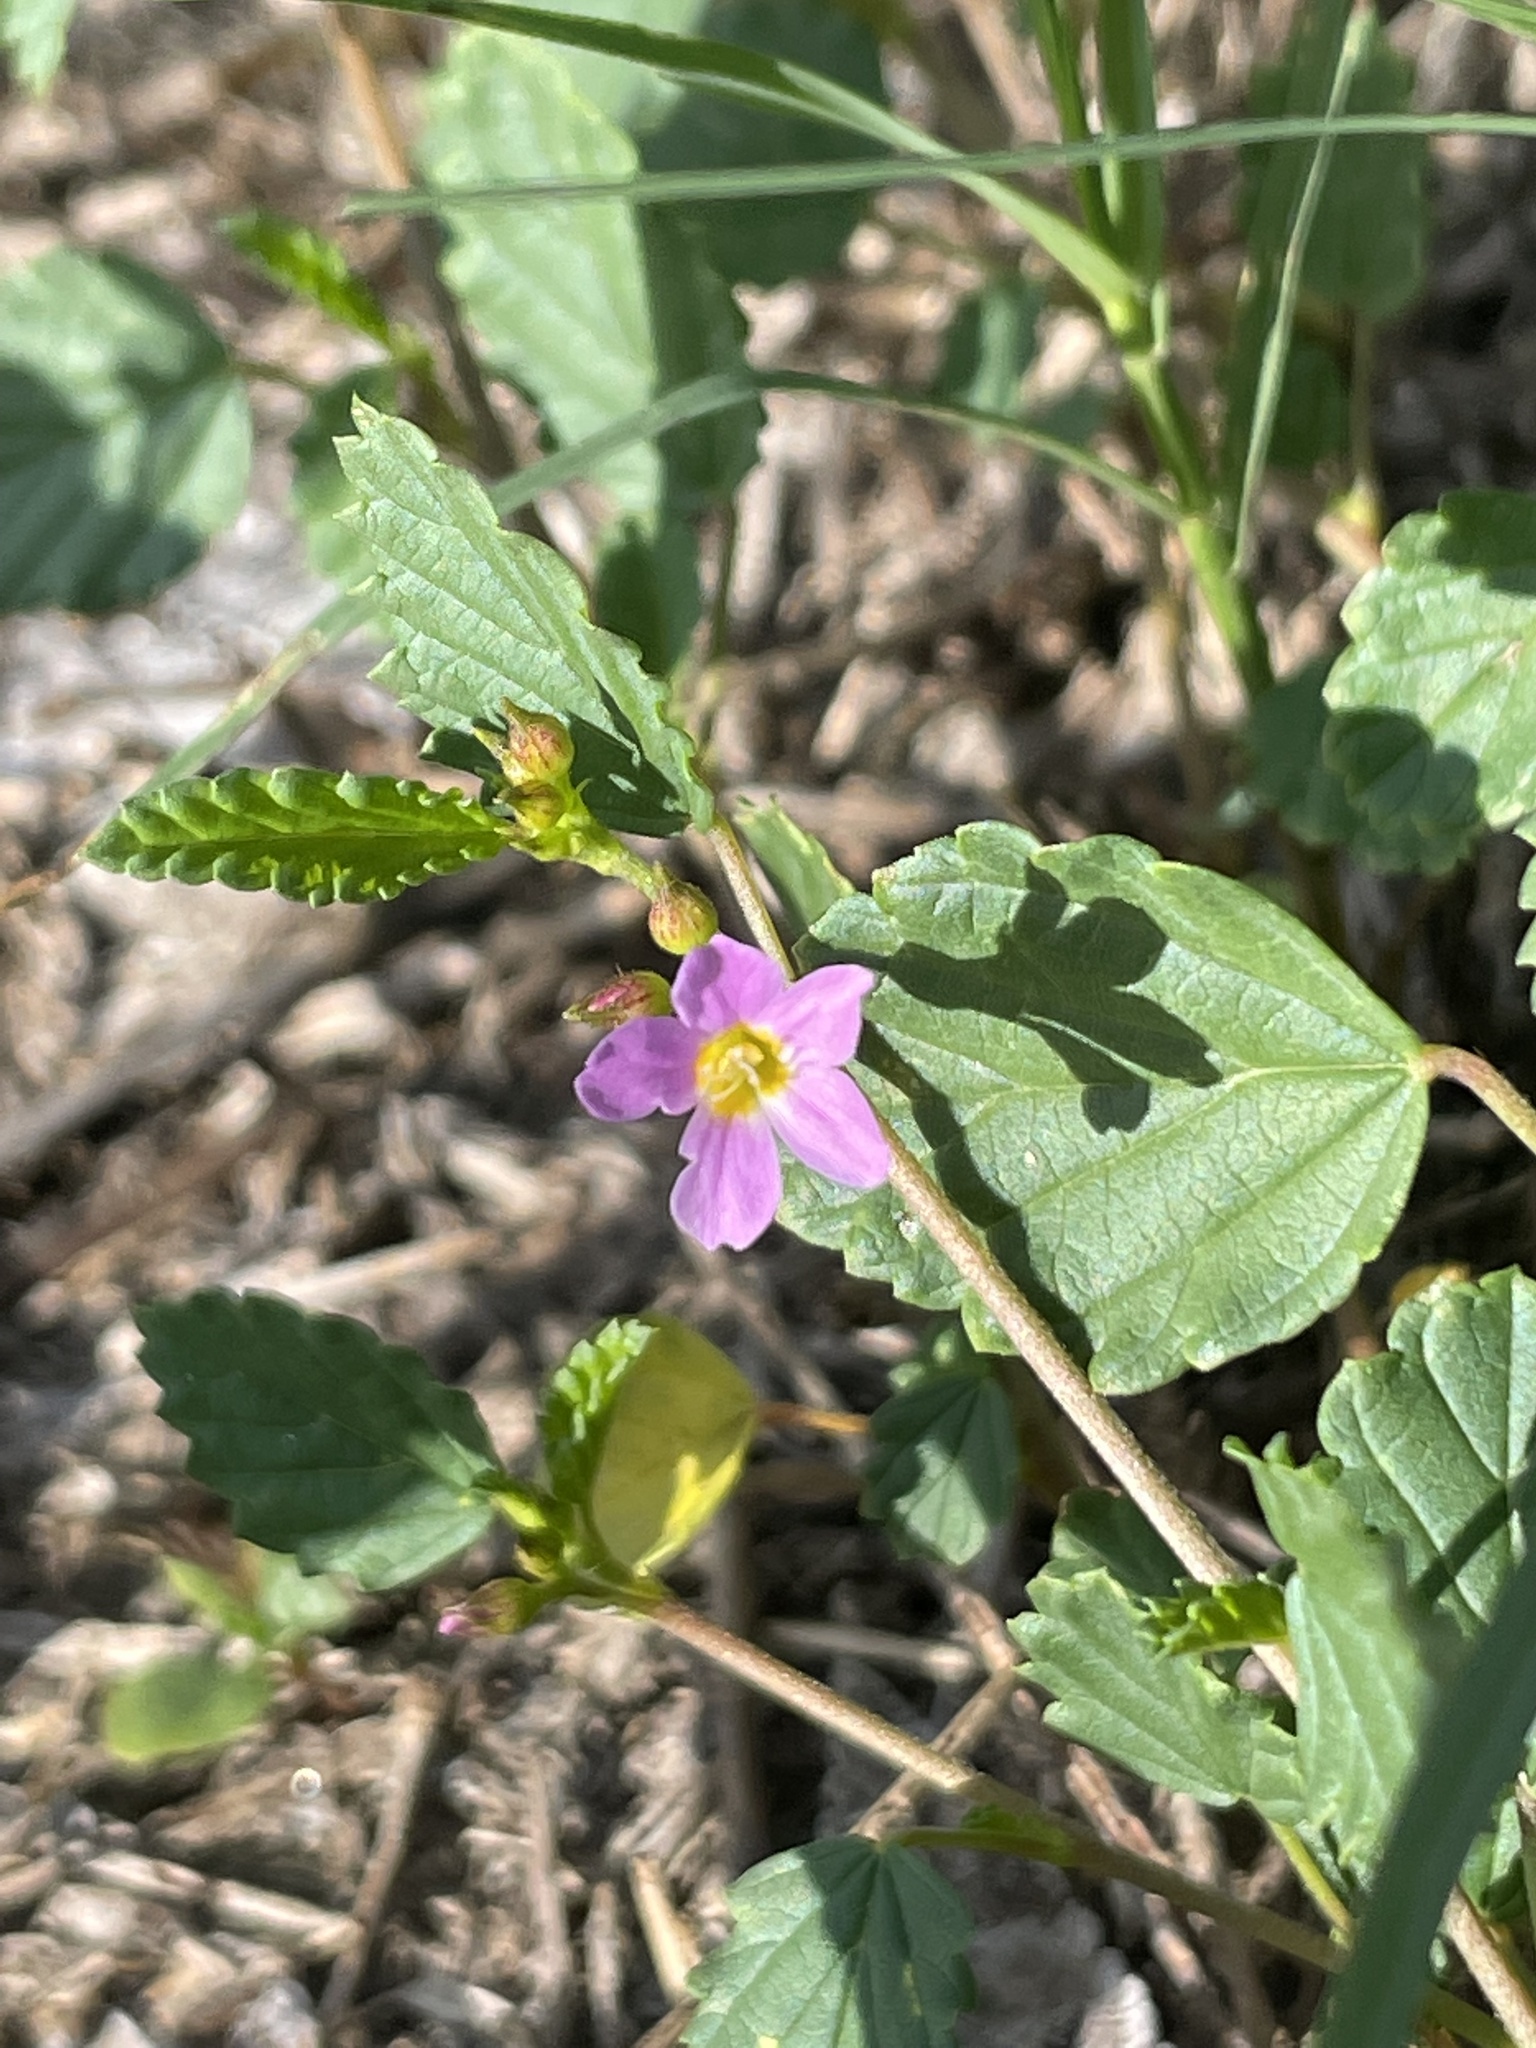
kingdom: Plantae
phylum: Tracheophyta
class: Magnoliopsida
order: Malvales
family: Malvaceae
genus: Melochia
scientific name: Melochia pyramidata
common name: Pyramidflower
